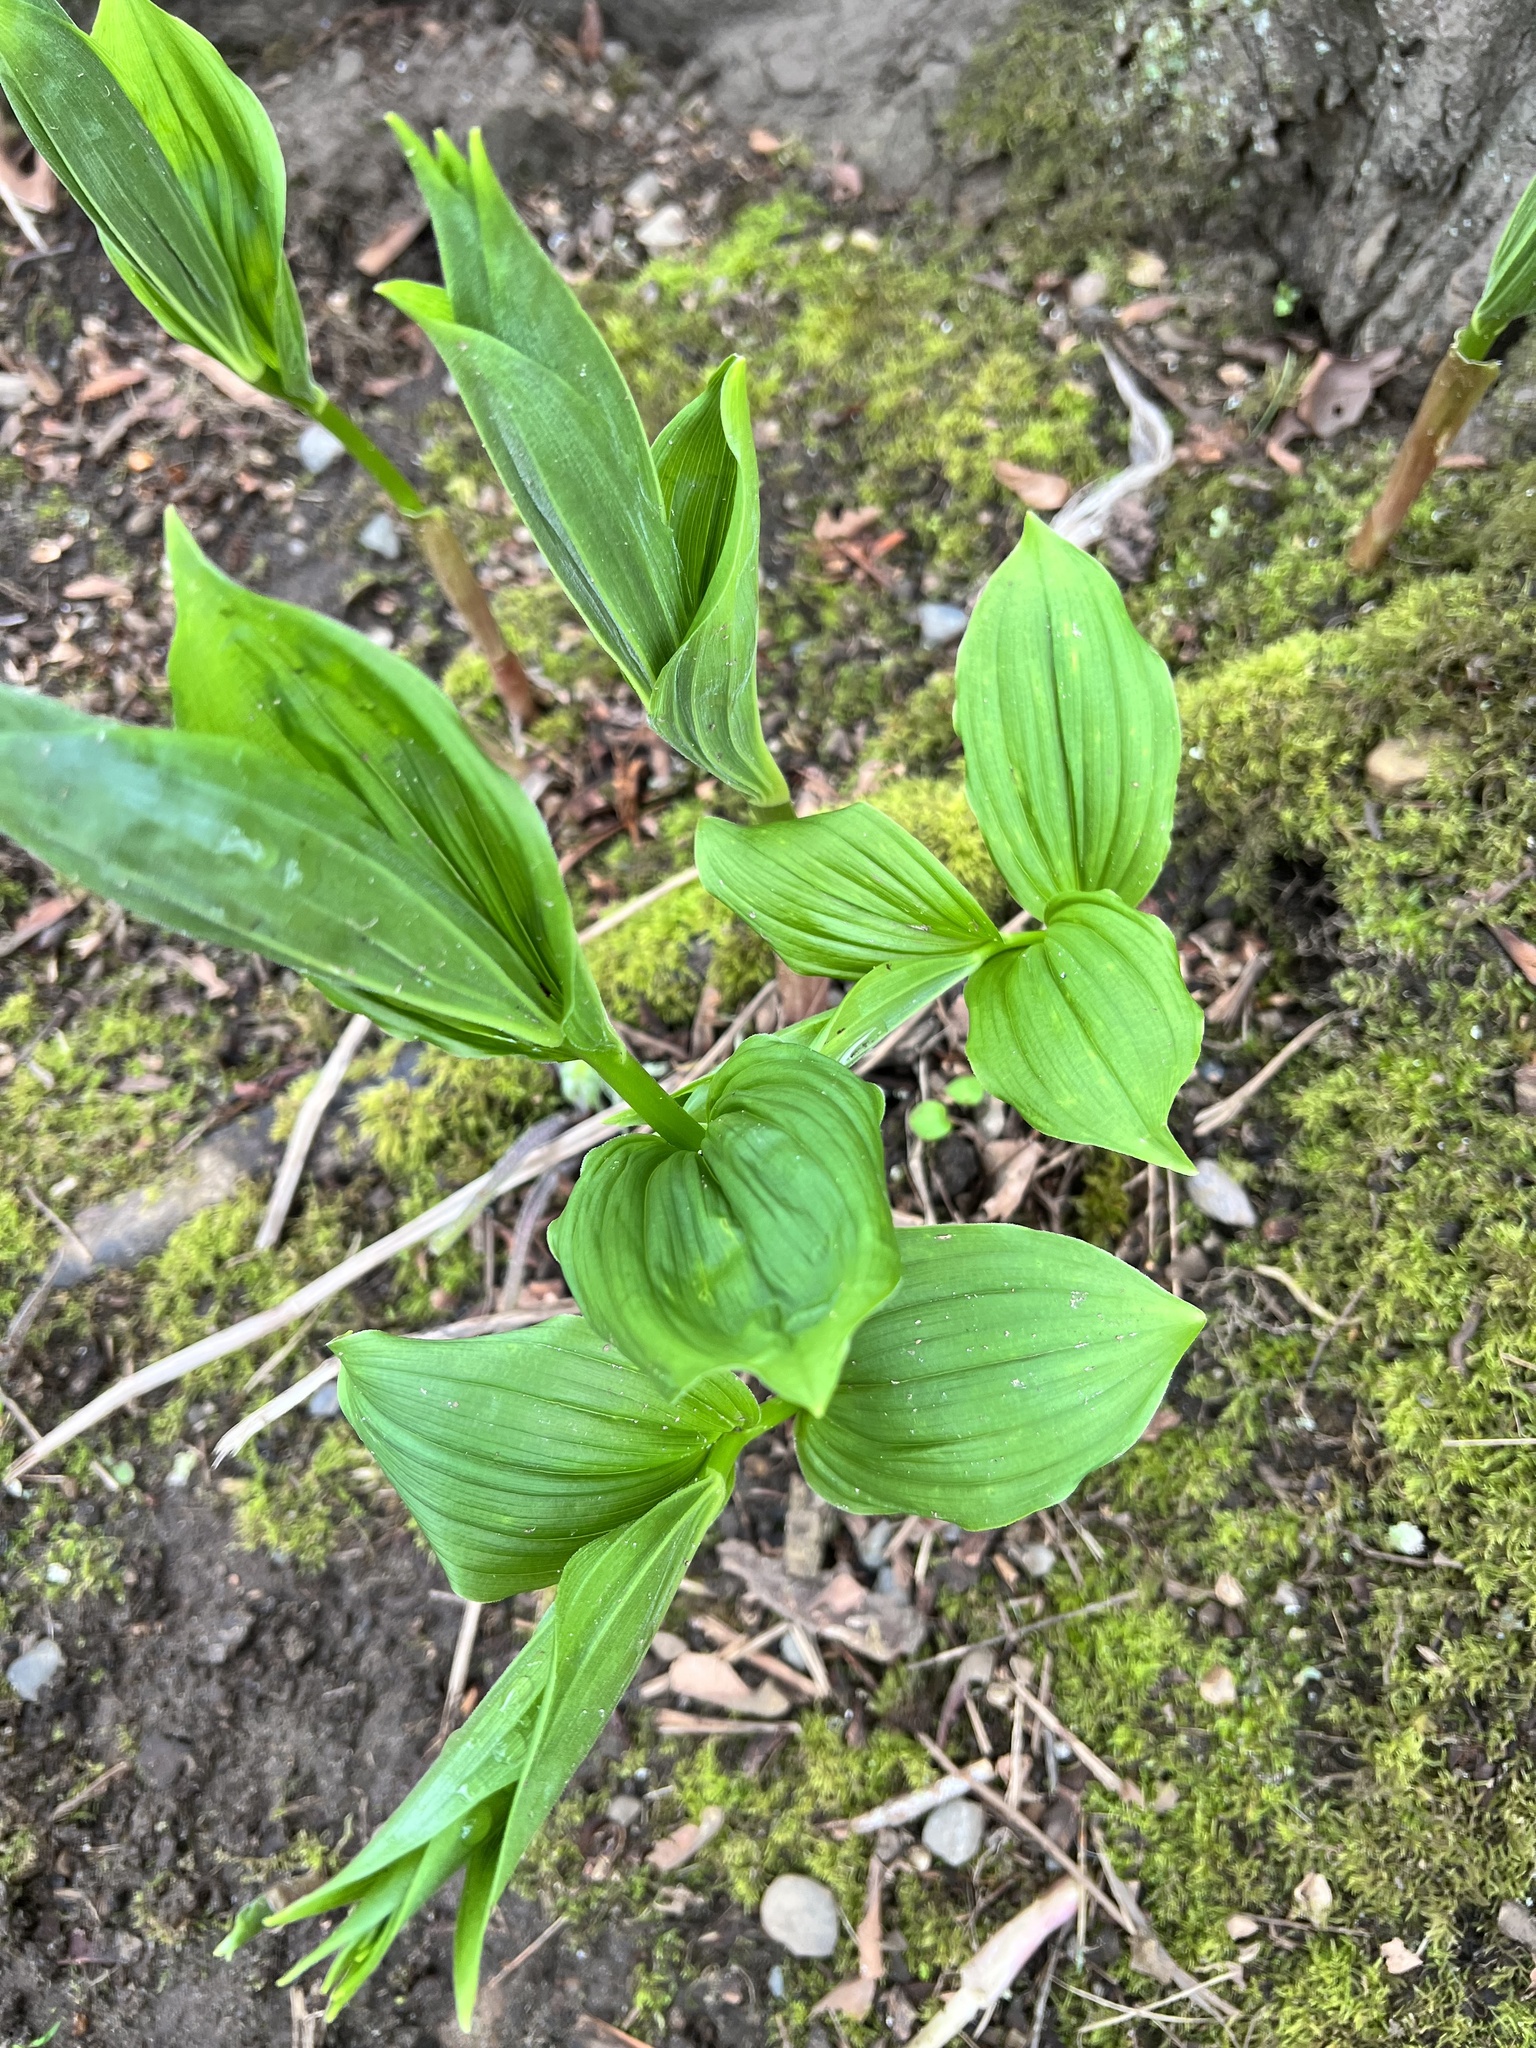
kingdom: Plantae
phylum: Tracheophyta
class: Liliopsida
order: Asparagales
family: Asparagaceae
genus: Maianthemum
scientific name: Maianthemum racemosum
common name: False spikenard
